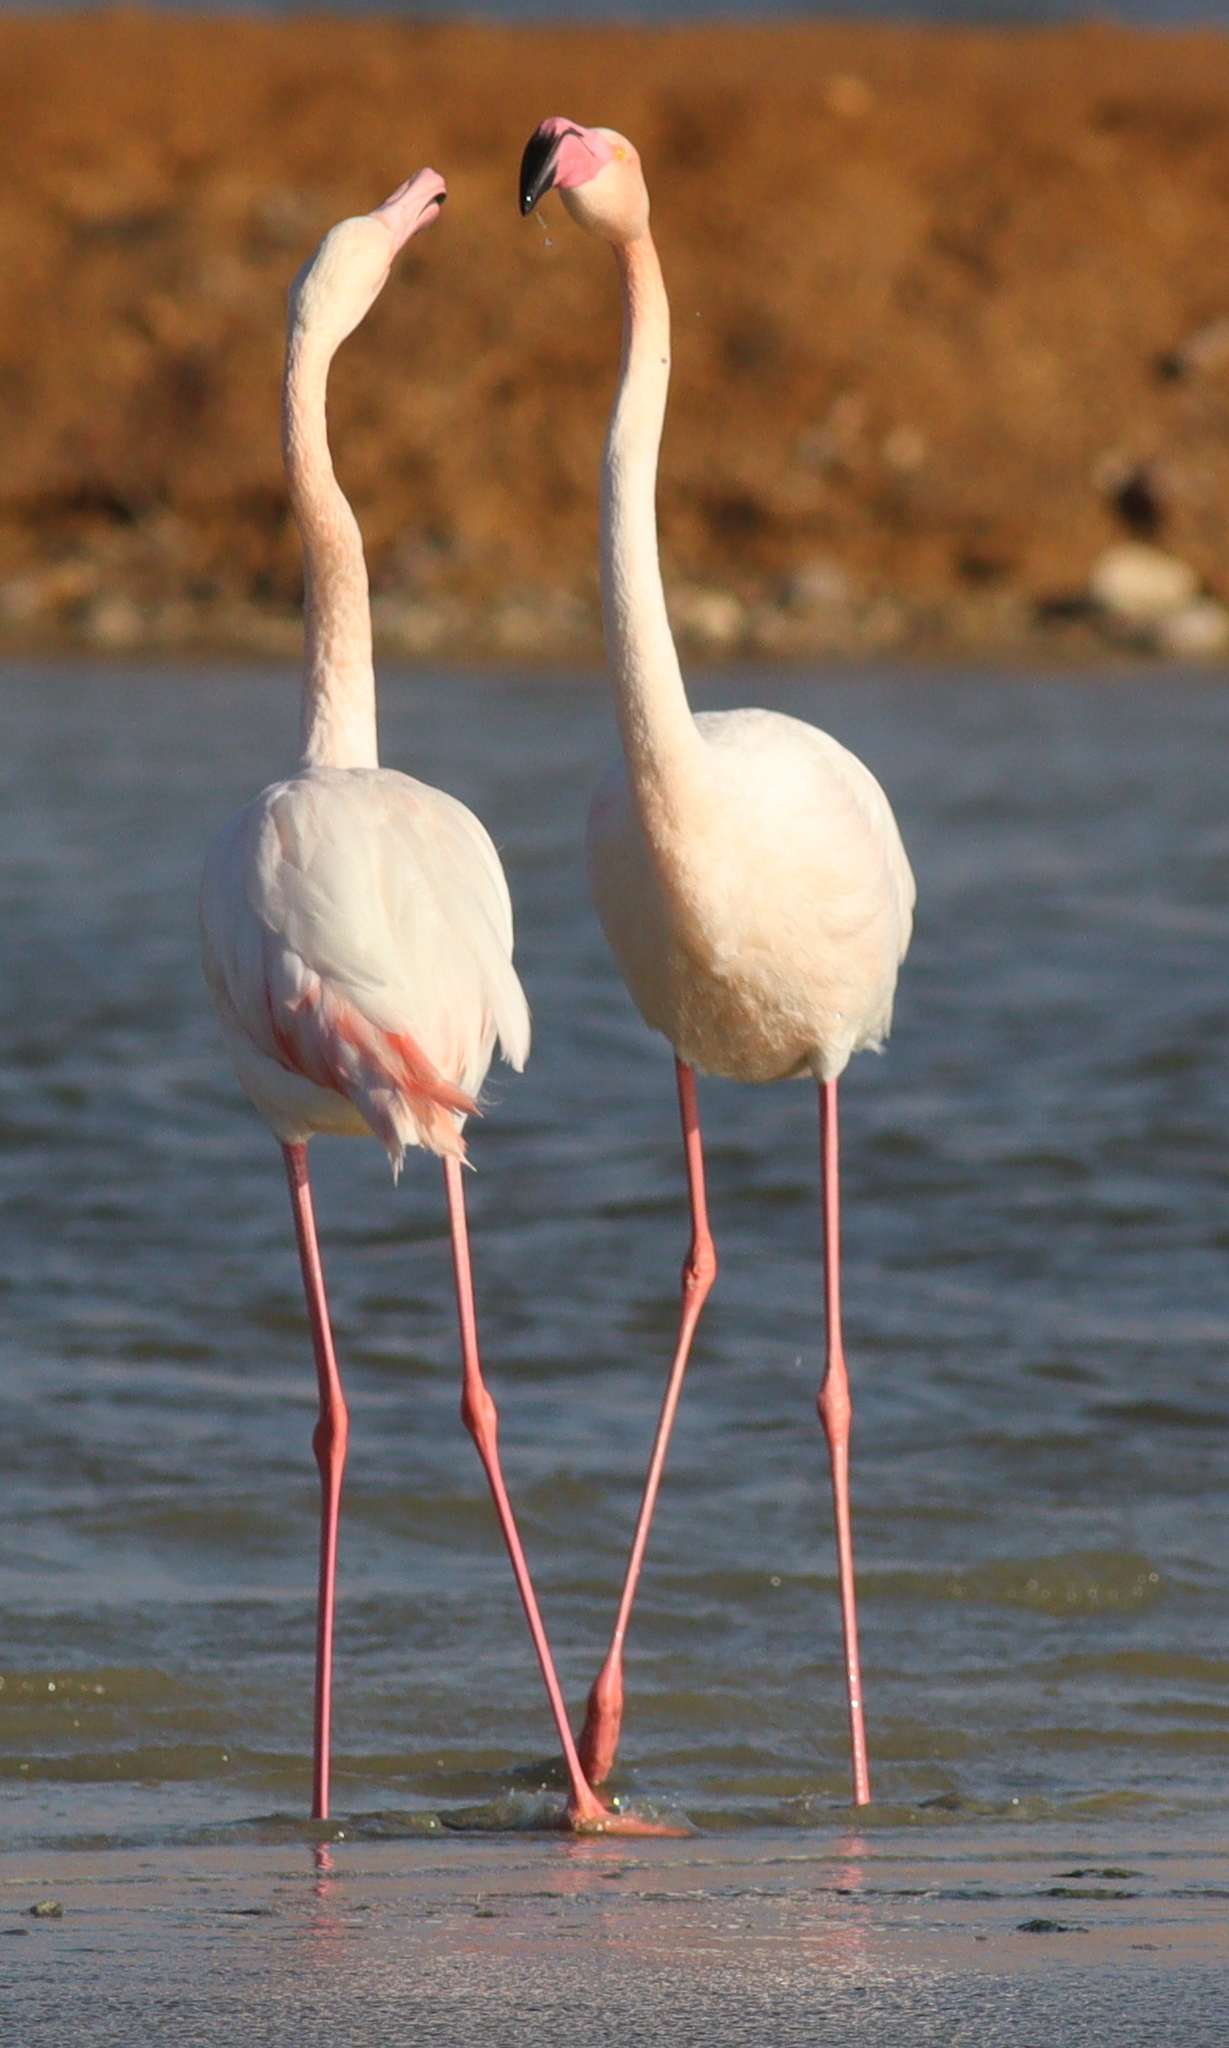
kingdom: Animalia
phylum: Chordata
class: Aves
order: Phoenicopteriformes
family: Phoenicopteridae
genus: Phoenicopterus
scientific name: Phoenicopterus roseus
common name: Greater flamingo
